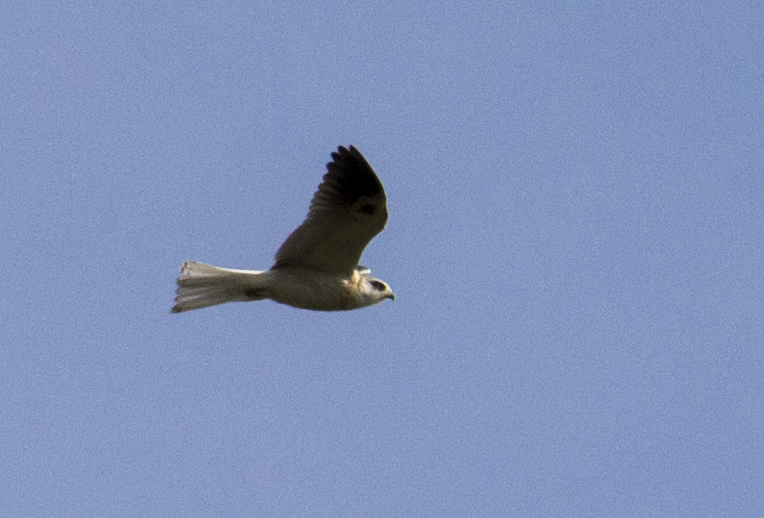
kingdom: Animalia
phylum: Chordata
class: Aves
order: Accipitriformes
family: Accipitridae
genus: Elanus
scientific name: Elanus leucurus
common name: White-tailed kite
